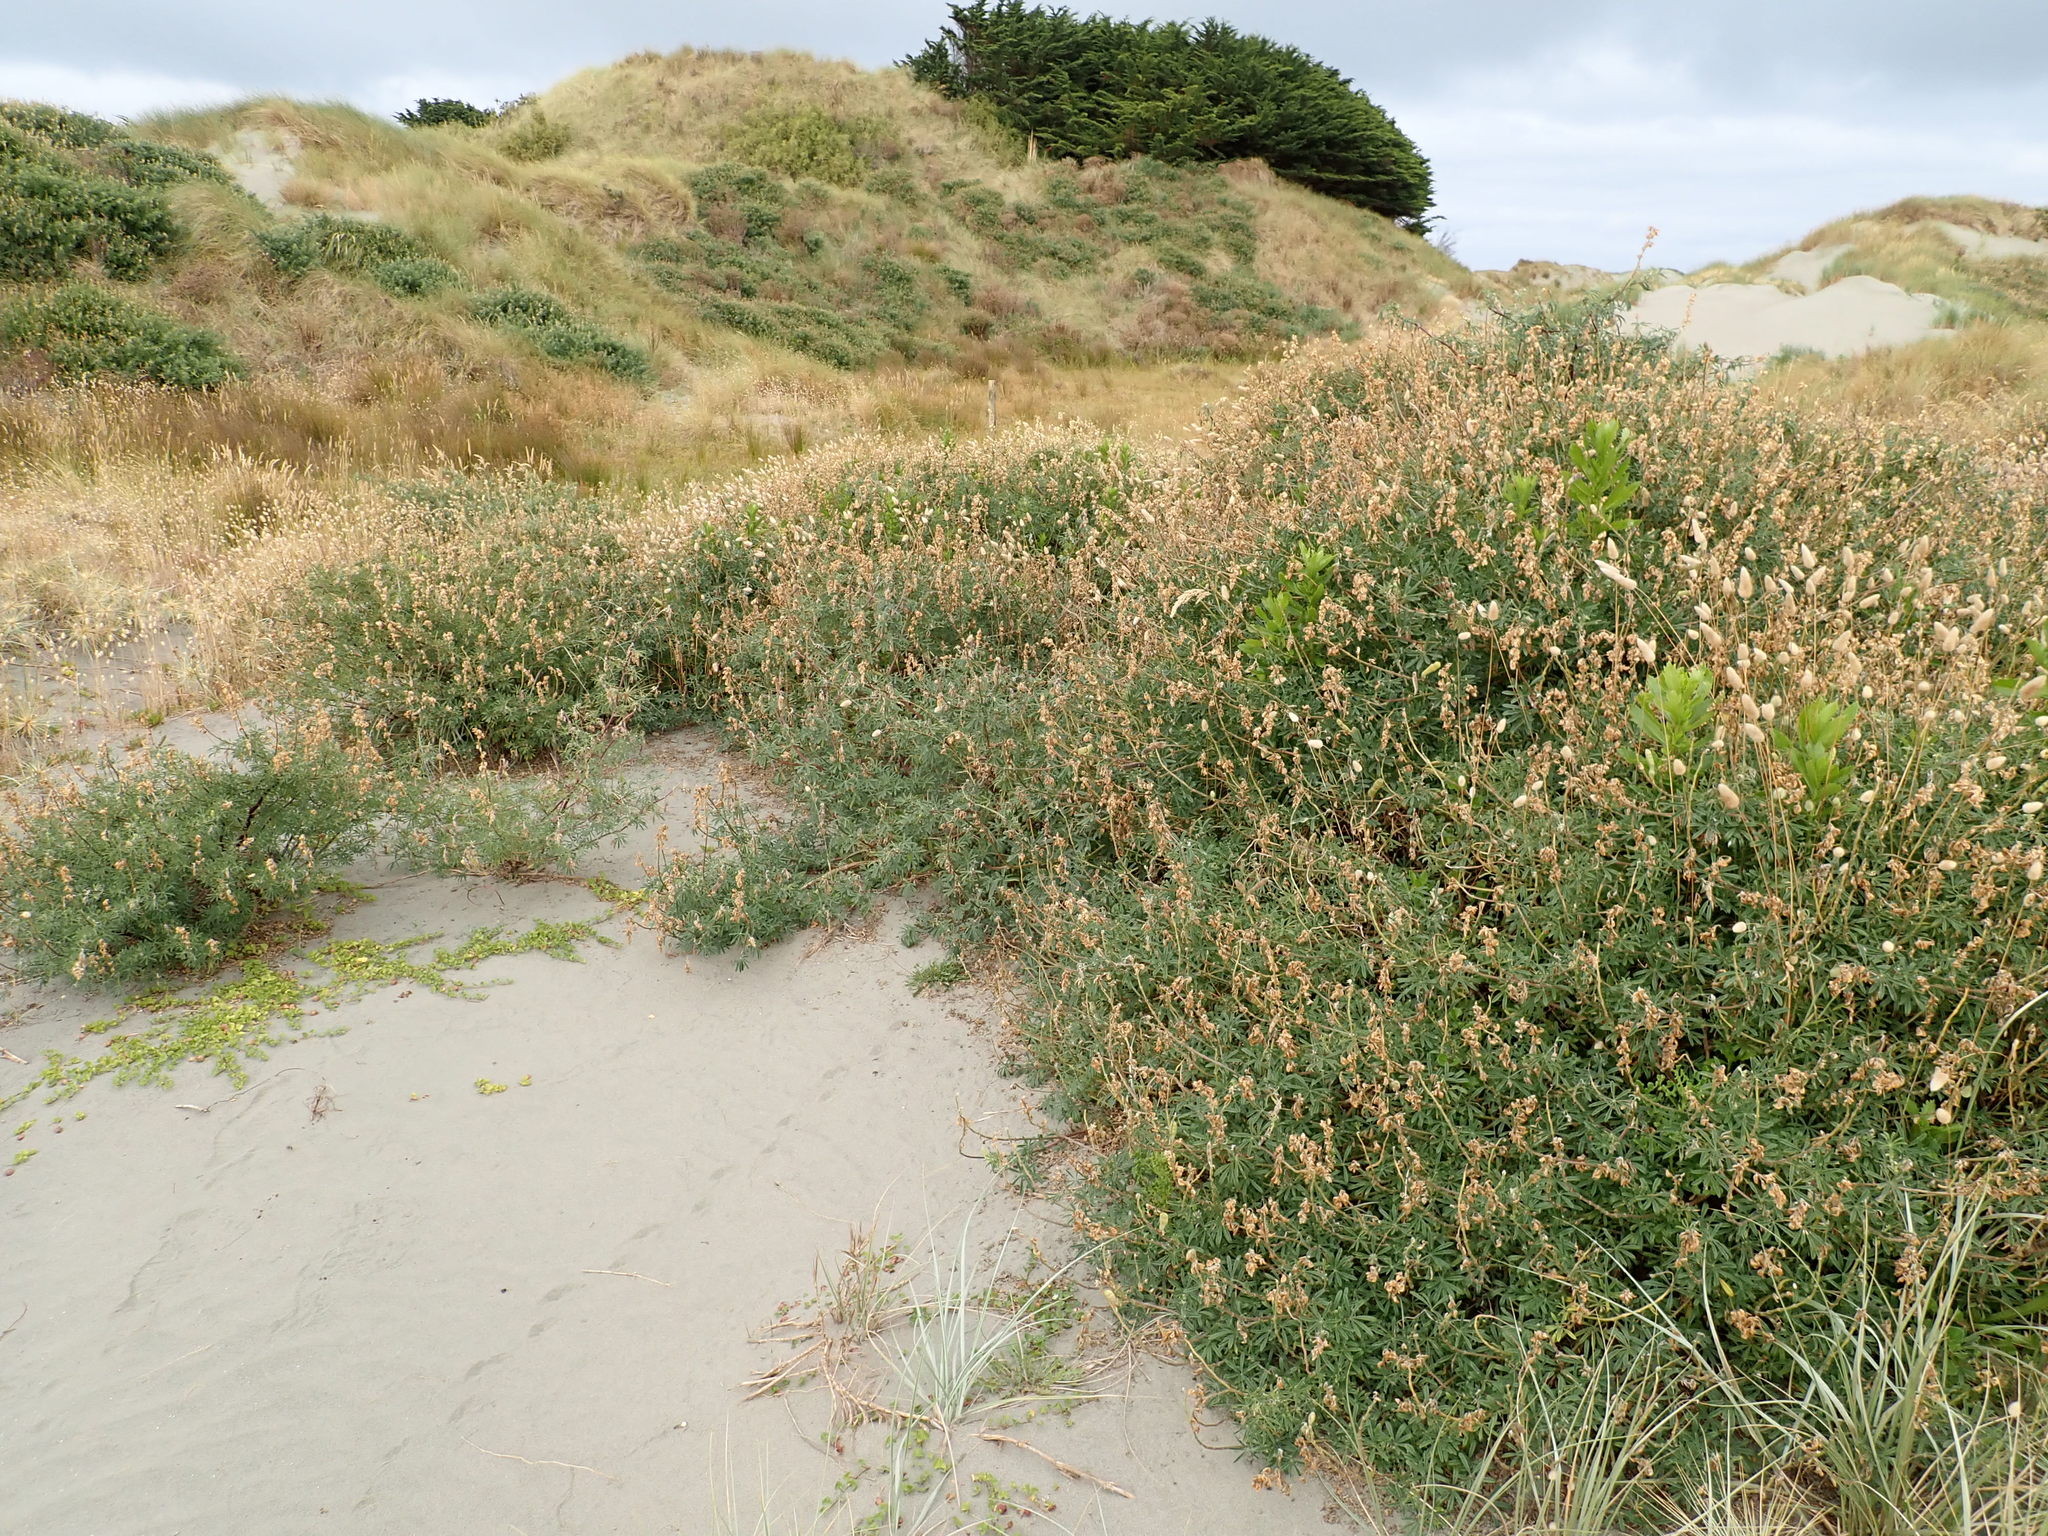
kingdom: Plantae
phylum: Tracheophyta
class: Magnoliopsida
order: Fabales
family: Fabaceae
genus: Lupinus
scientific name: Lupinus arboreus
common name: Yellow bush lupine
